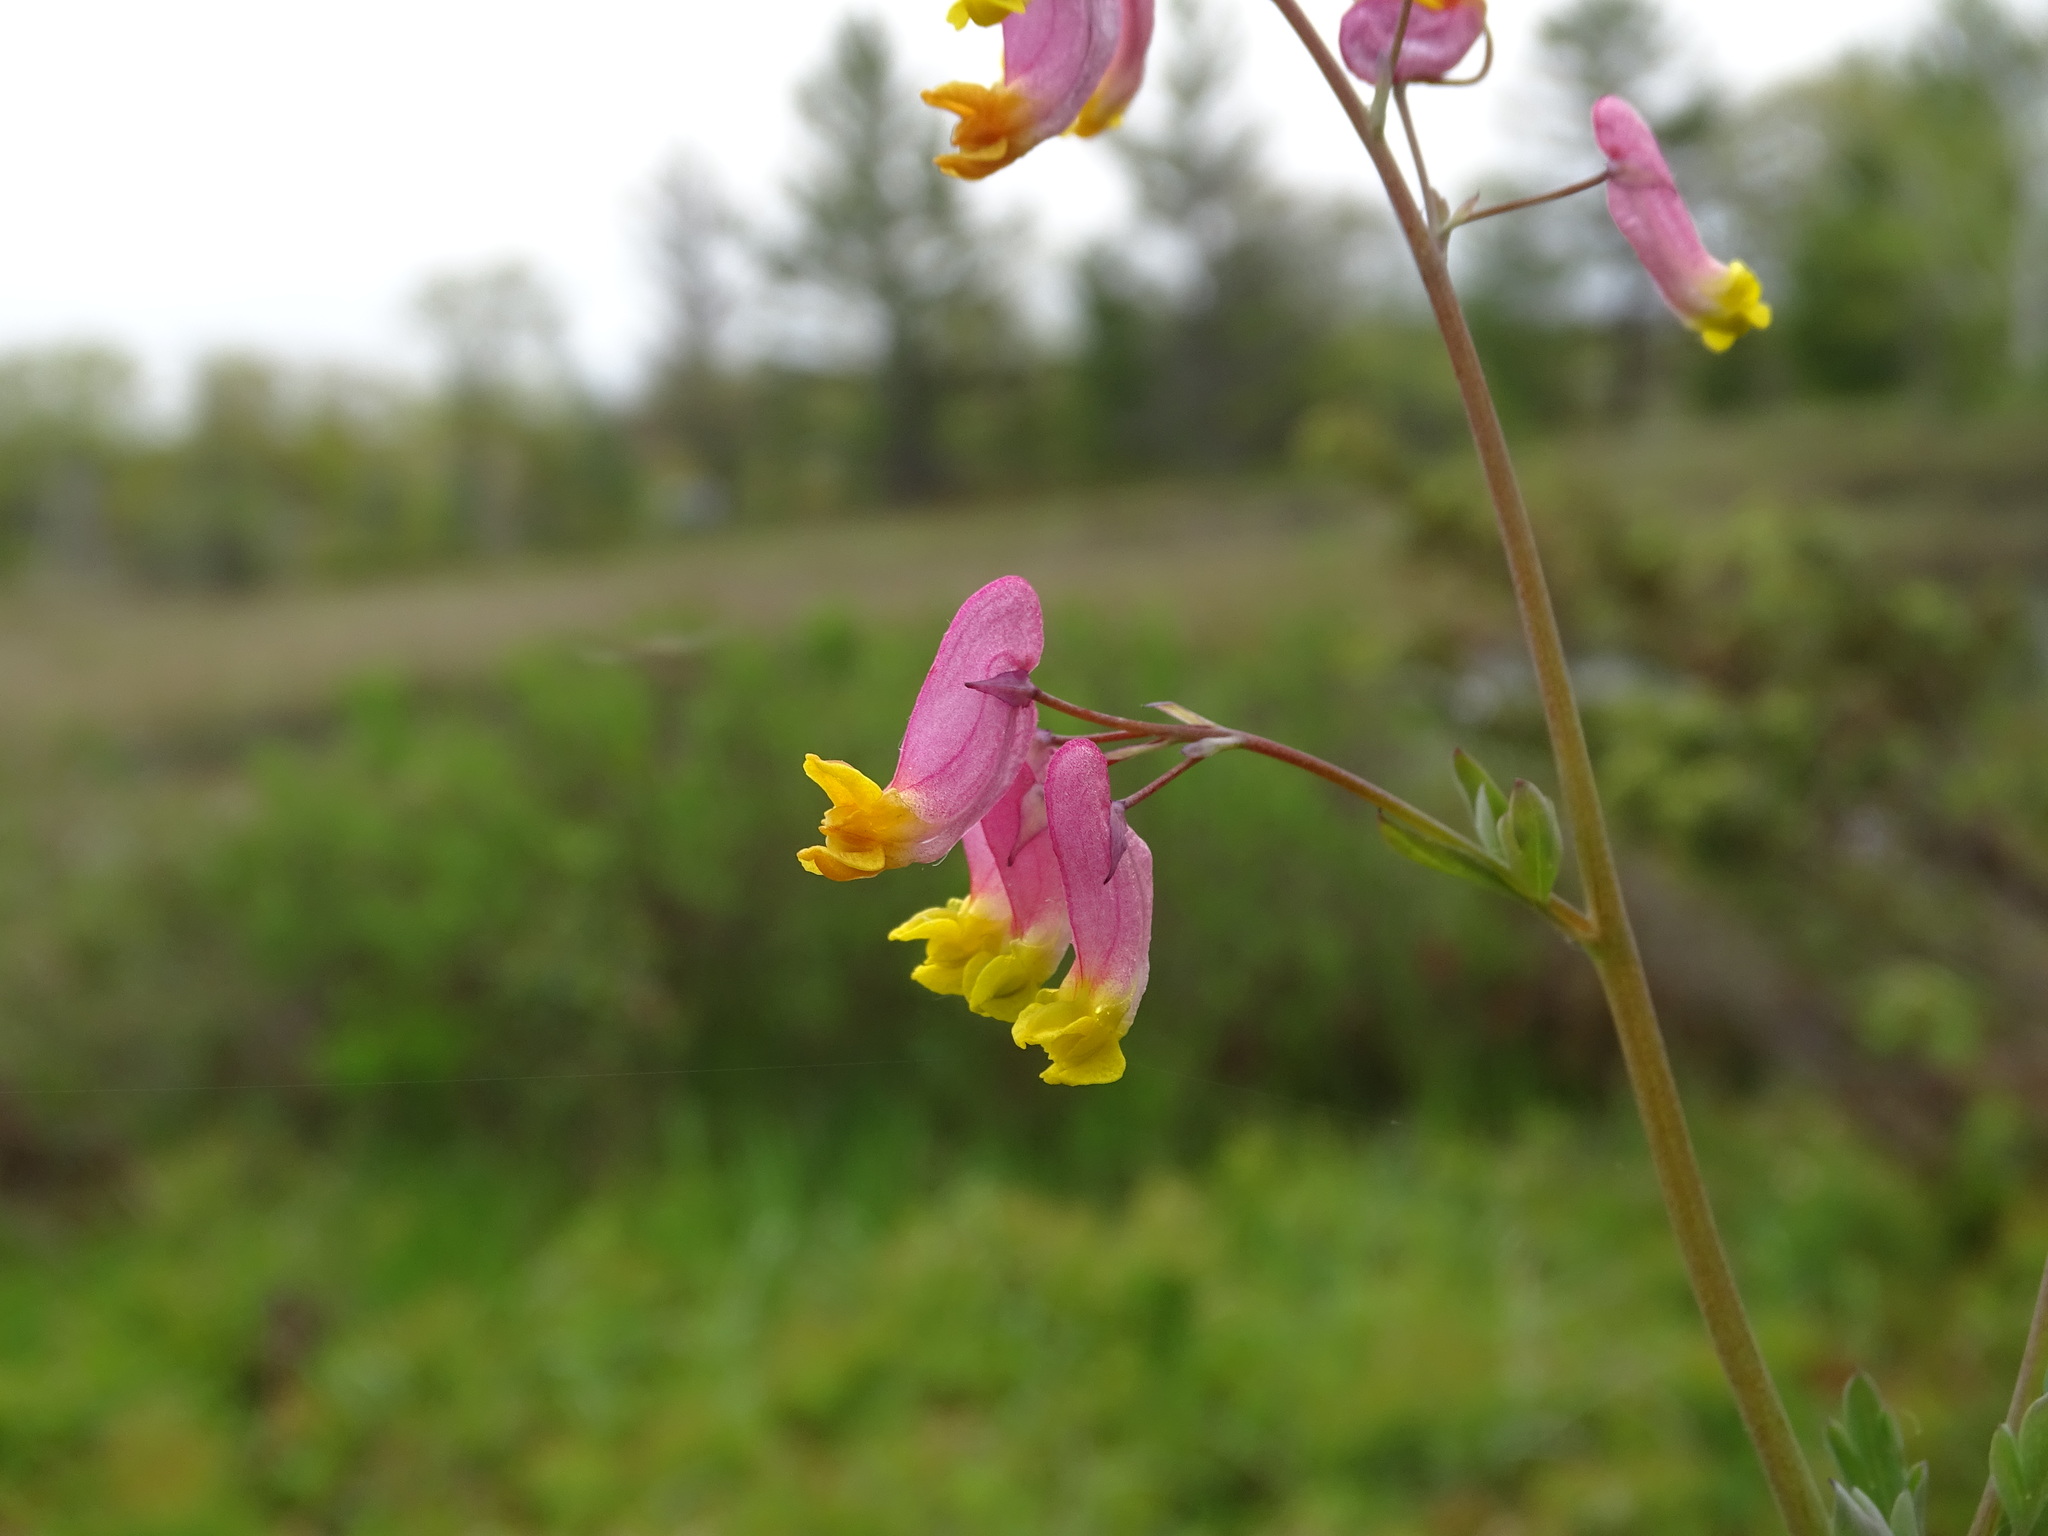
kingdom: Plantae
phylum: Tracheophyta
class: Magnoliopsida
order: Ranunculales
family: Papaveraceae
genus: Capnoides
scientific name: Capnoides sempervirens
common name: Rock harlequin
